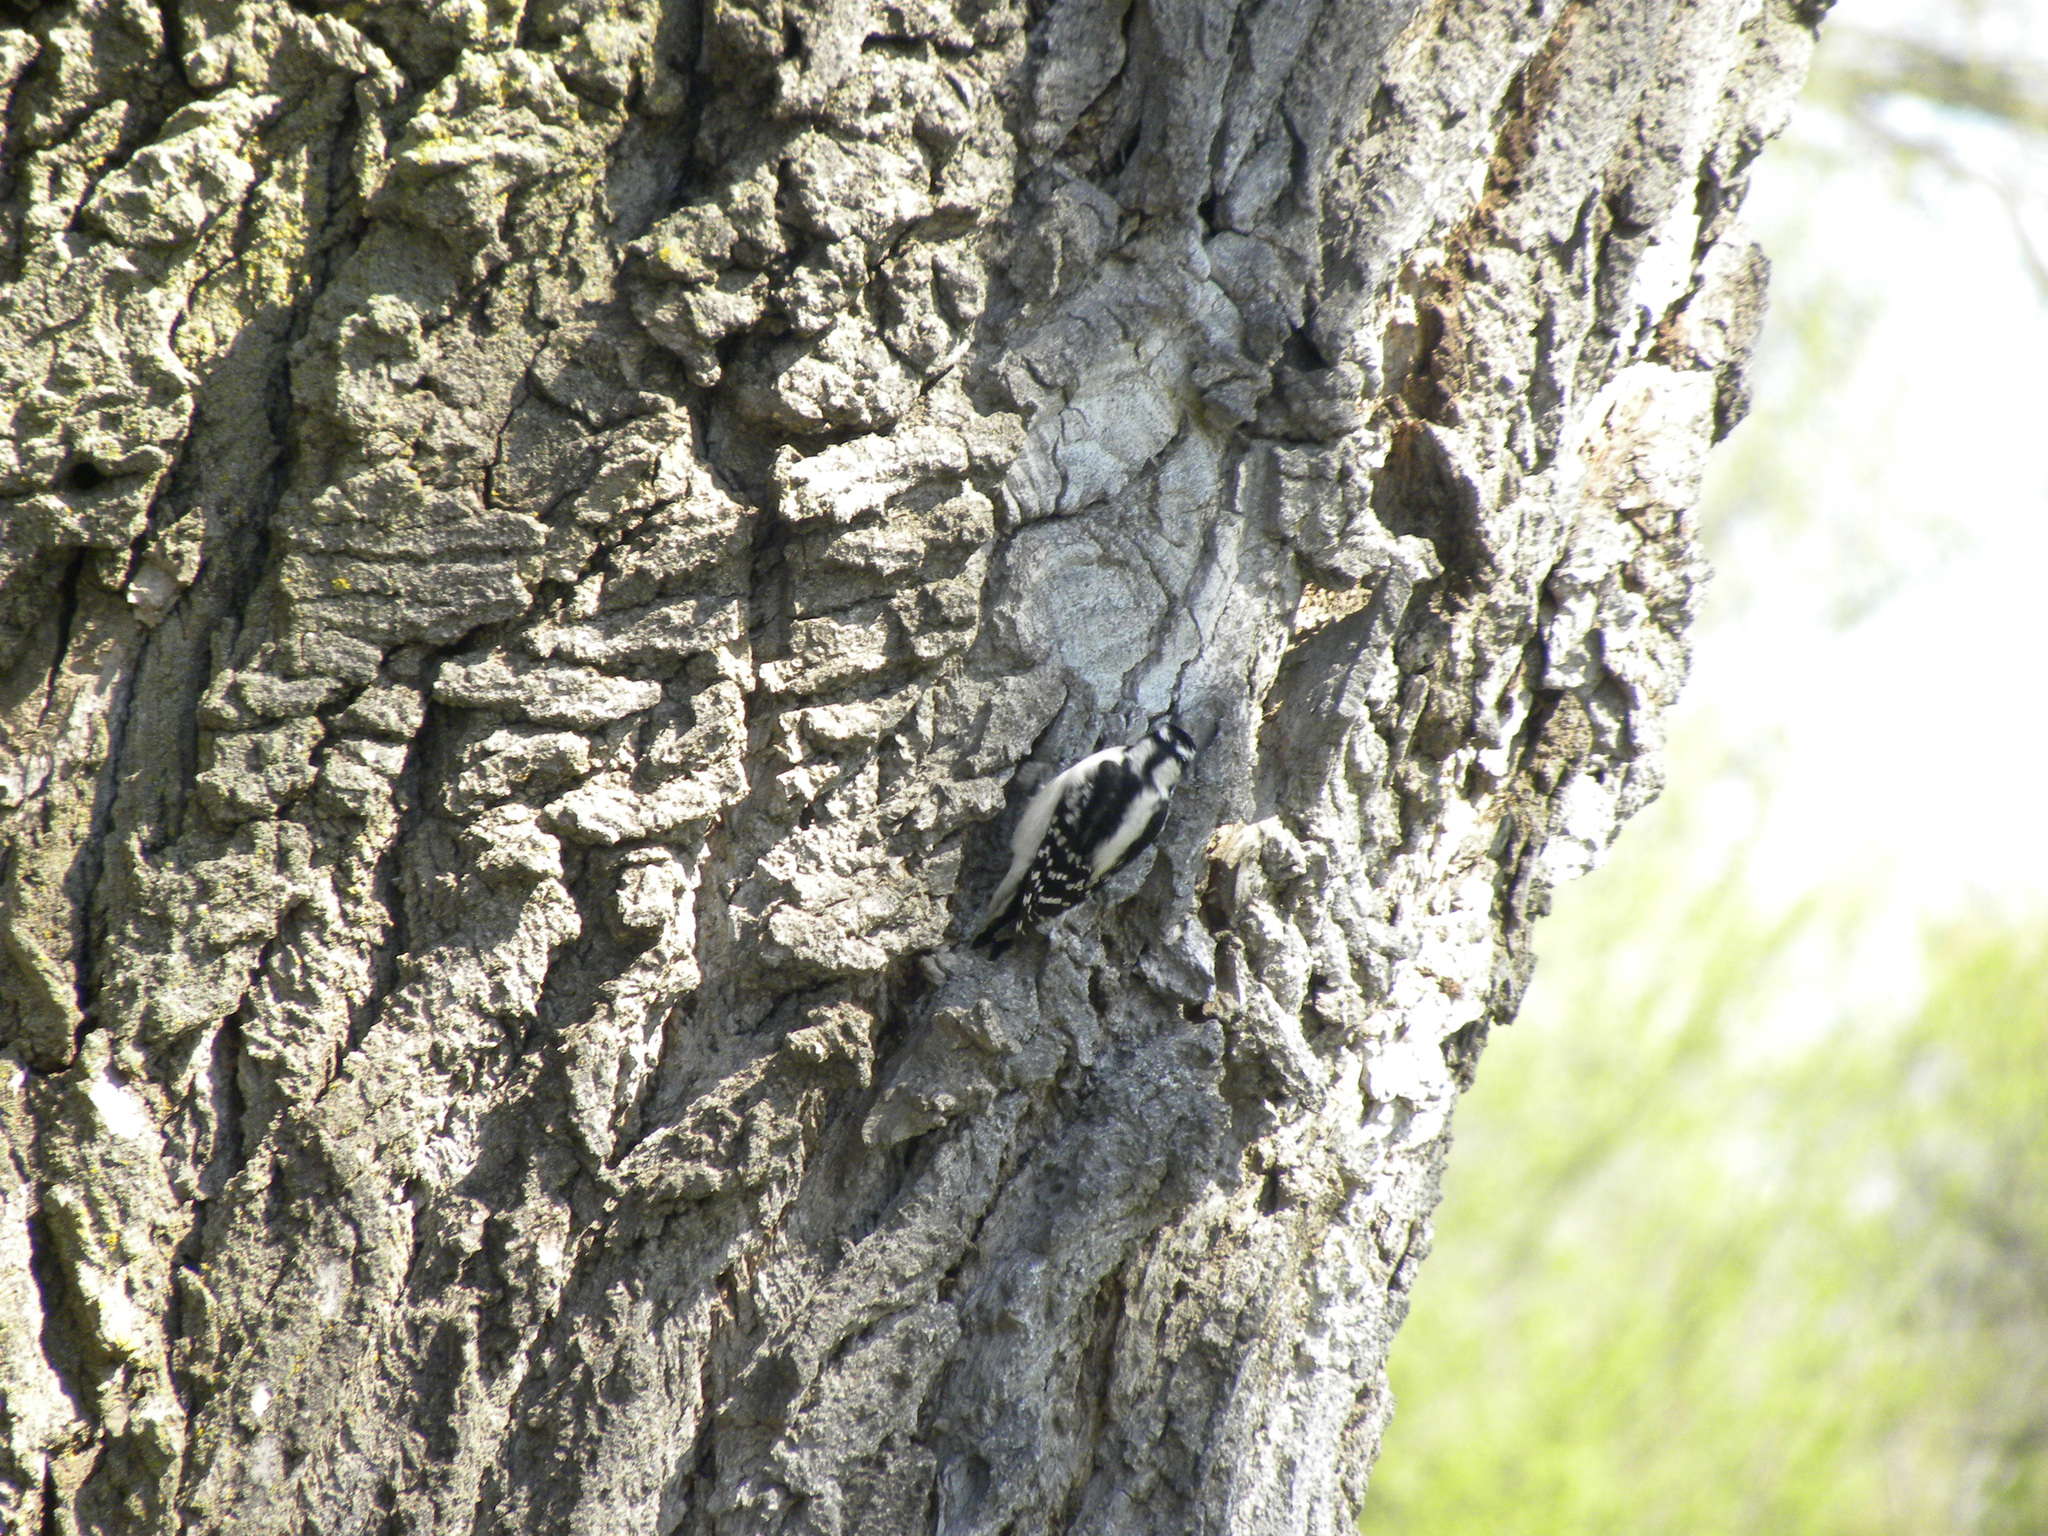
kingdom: Animalia
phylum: Chordata
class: Aves
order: Piciformes
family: Picidae
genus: Dryobates
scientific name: Dryobates pubescens
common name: Downy woodpecker
